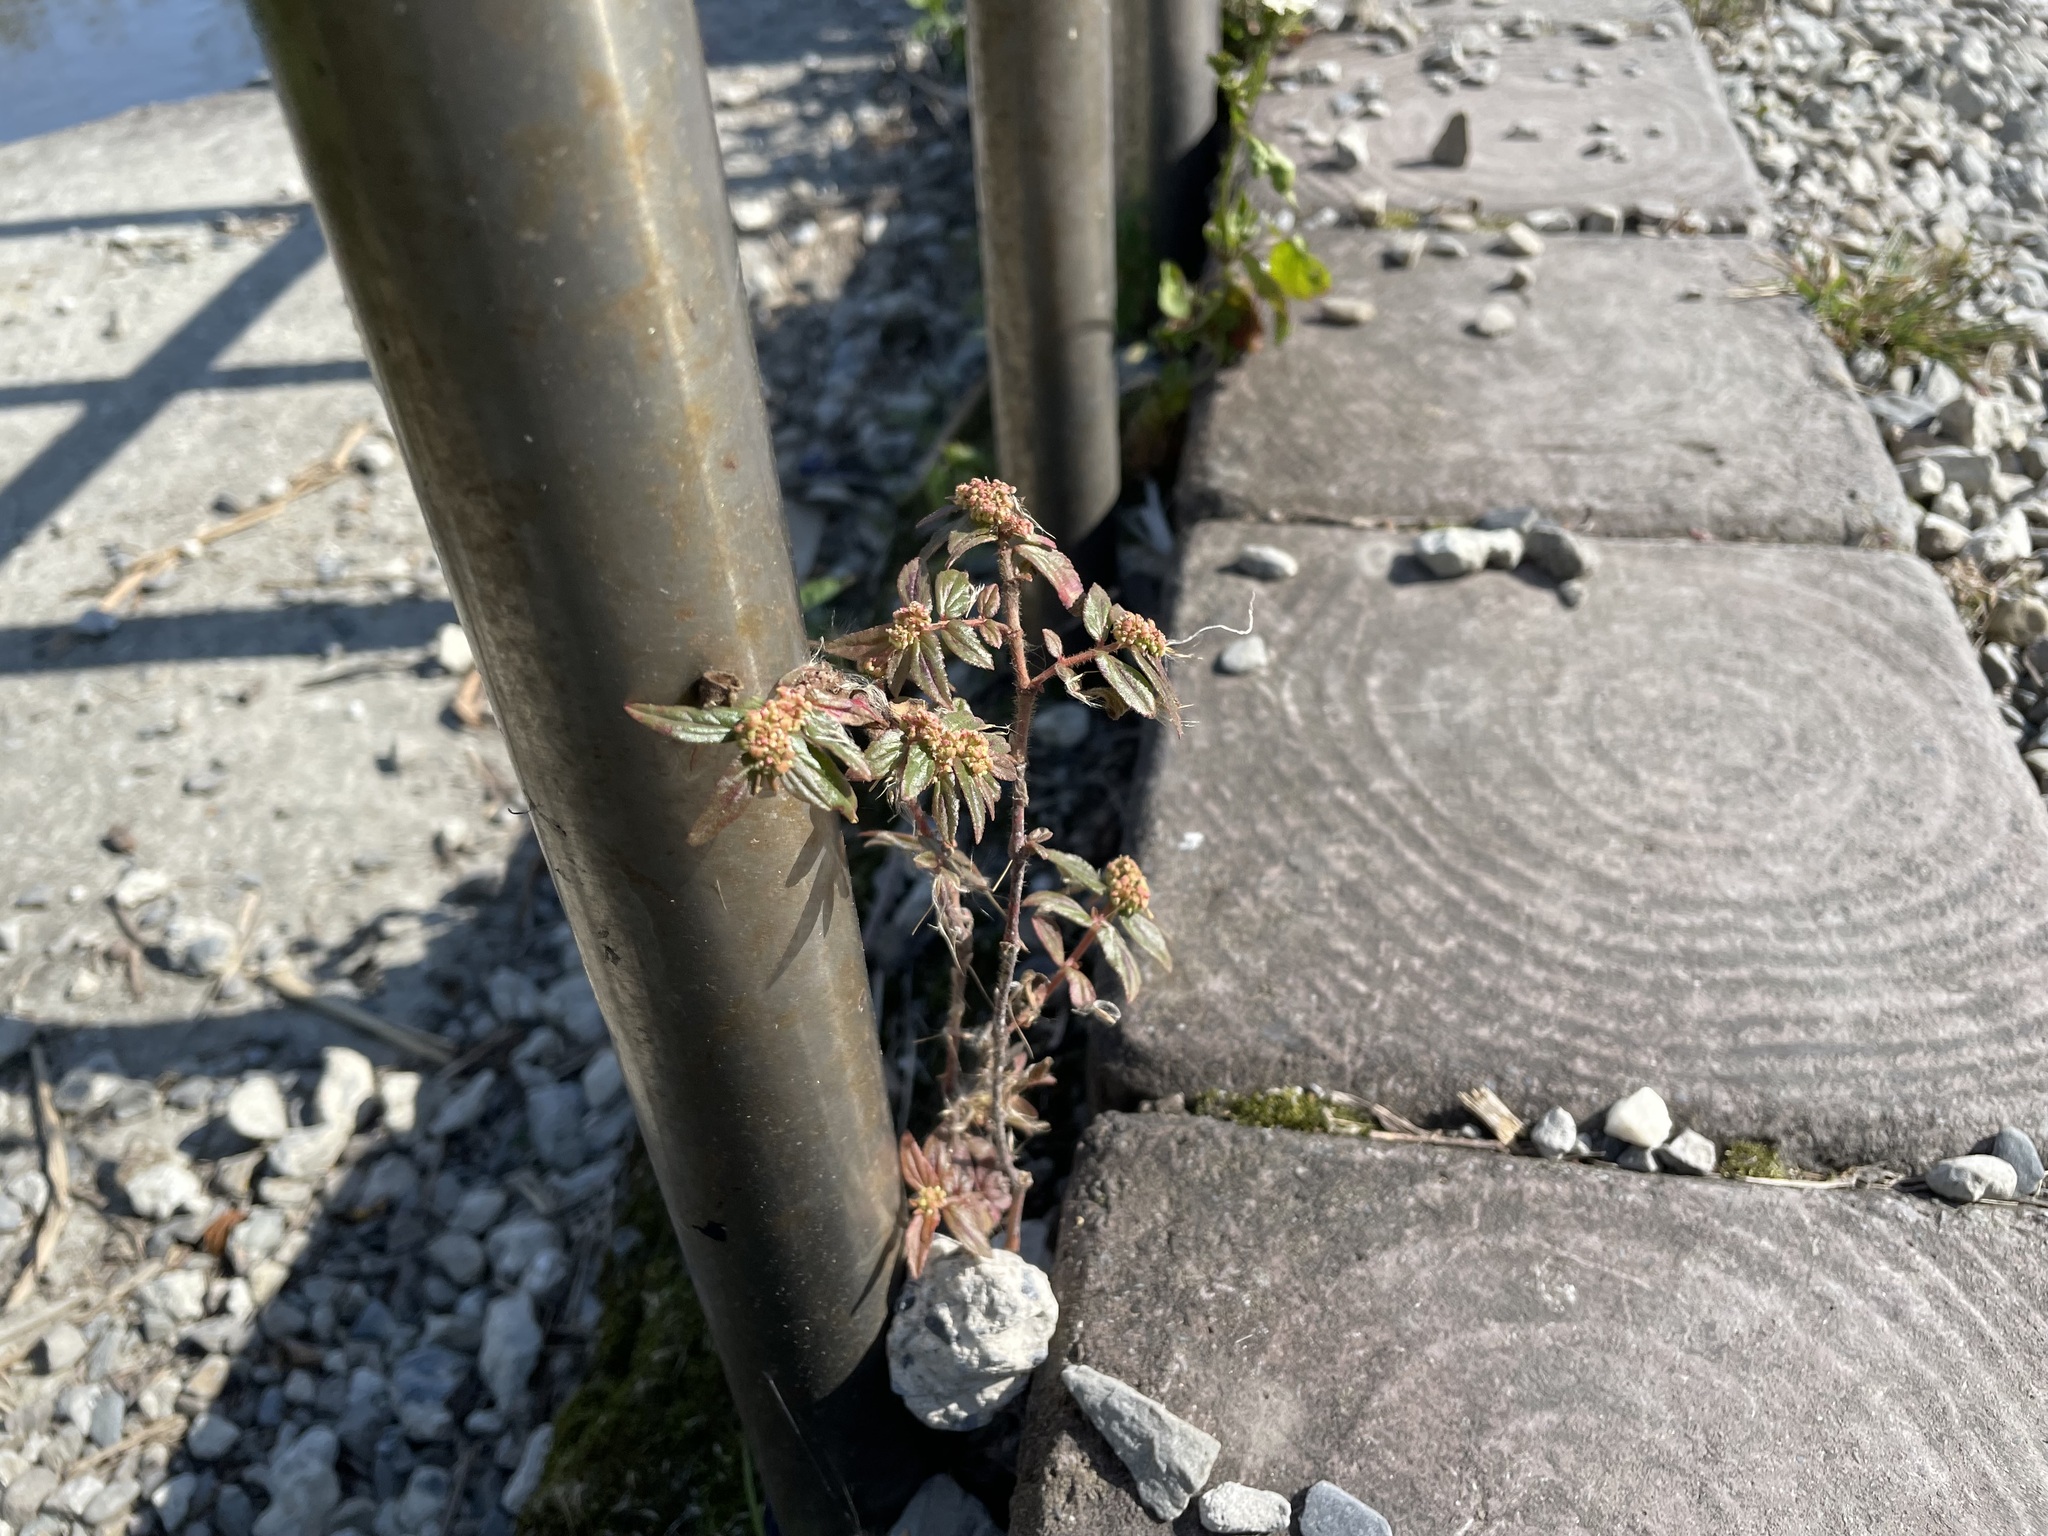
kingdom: Plantae
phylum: Tracheophyta
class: Magnoliopsida
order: Malpighiales
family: Euphorbiaceae
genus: Euphorbia
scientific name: Euphorbia hirta
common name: Pillpod sandmat
